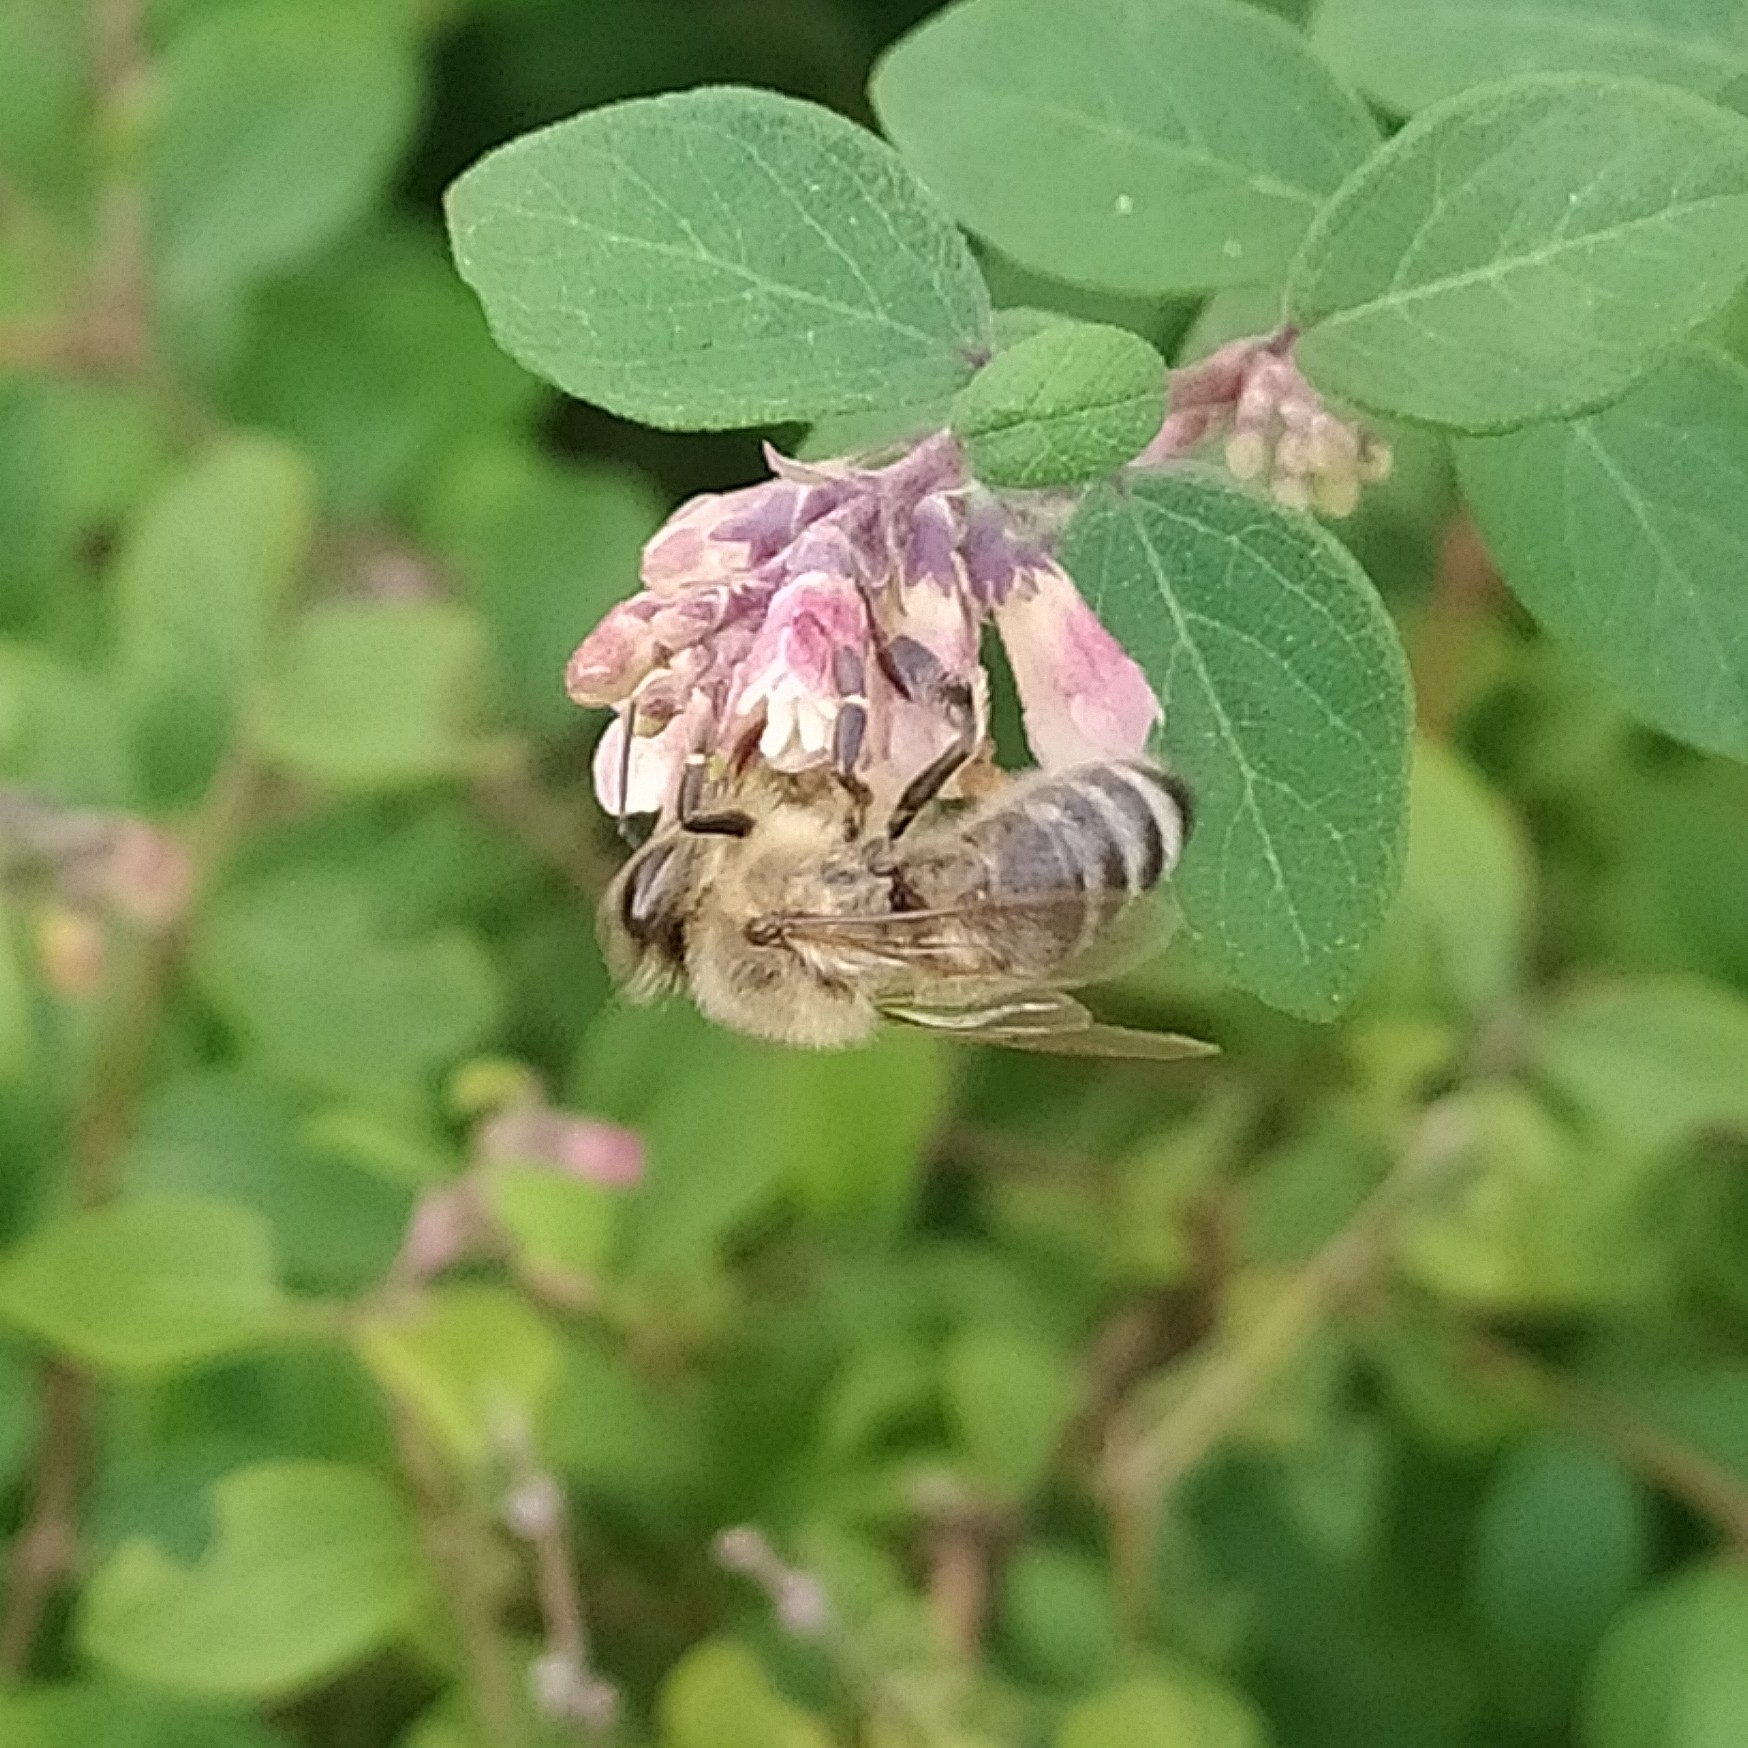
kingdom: Animalia
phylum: Arthropoda
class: Insecta
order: Hymenoptera
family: Apidae
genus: Apis
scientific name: Apis mellifera
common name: Honey bee
